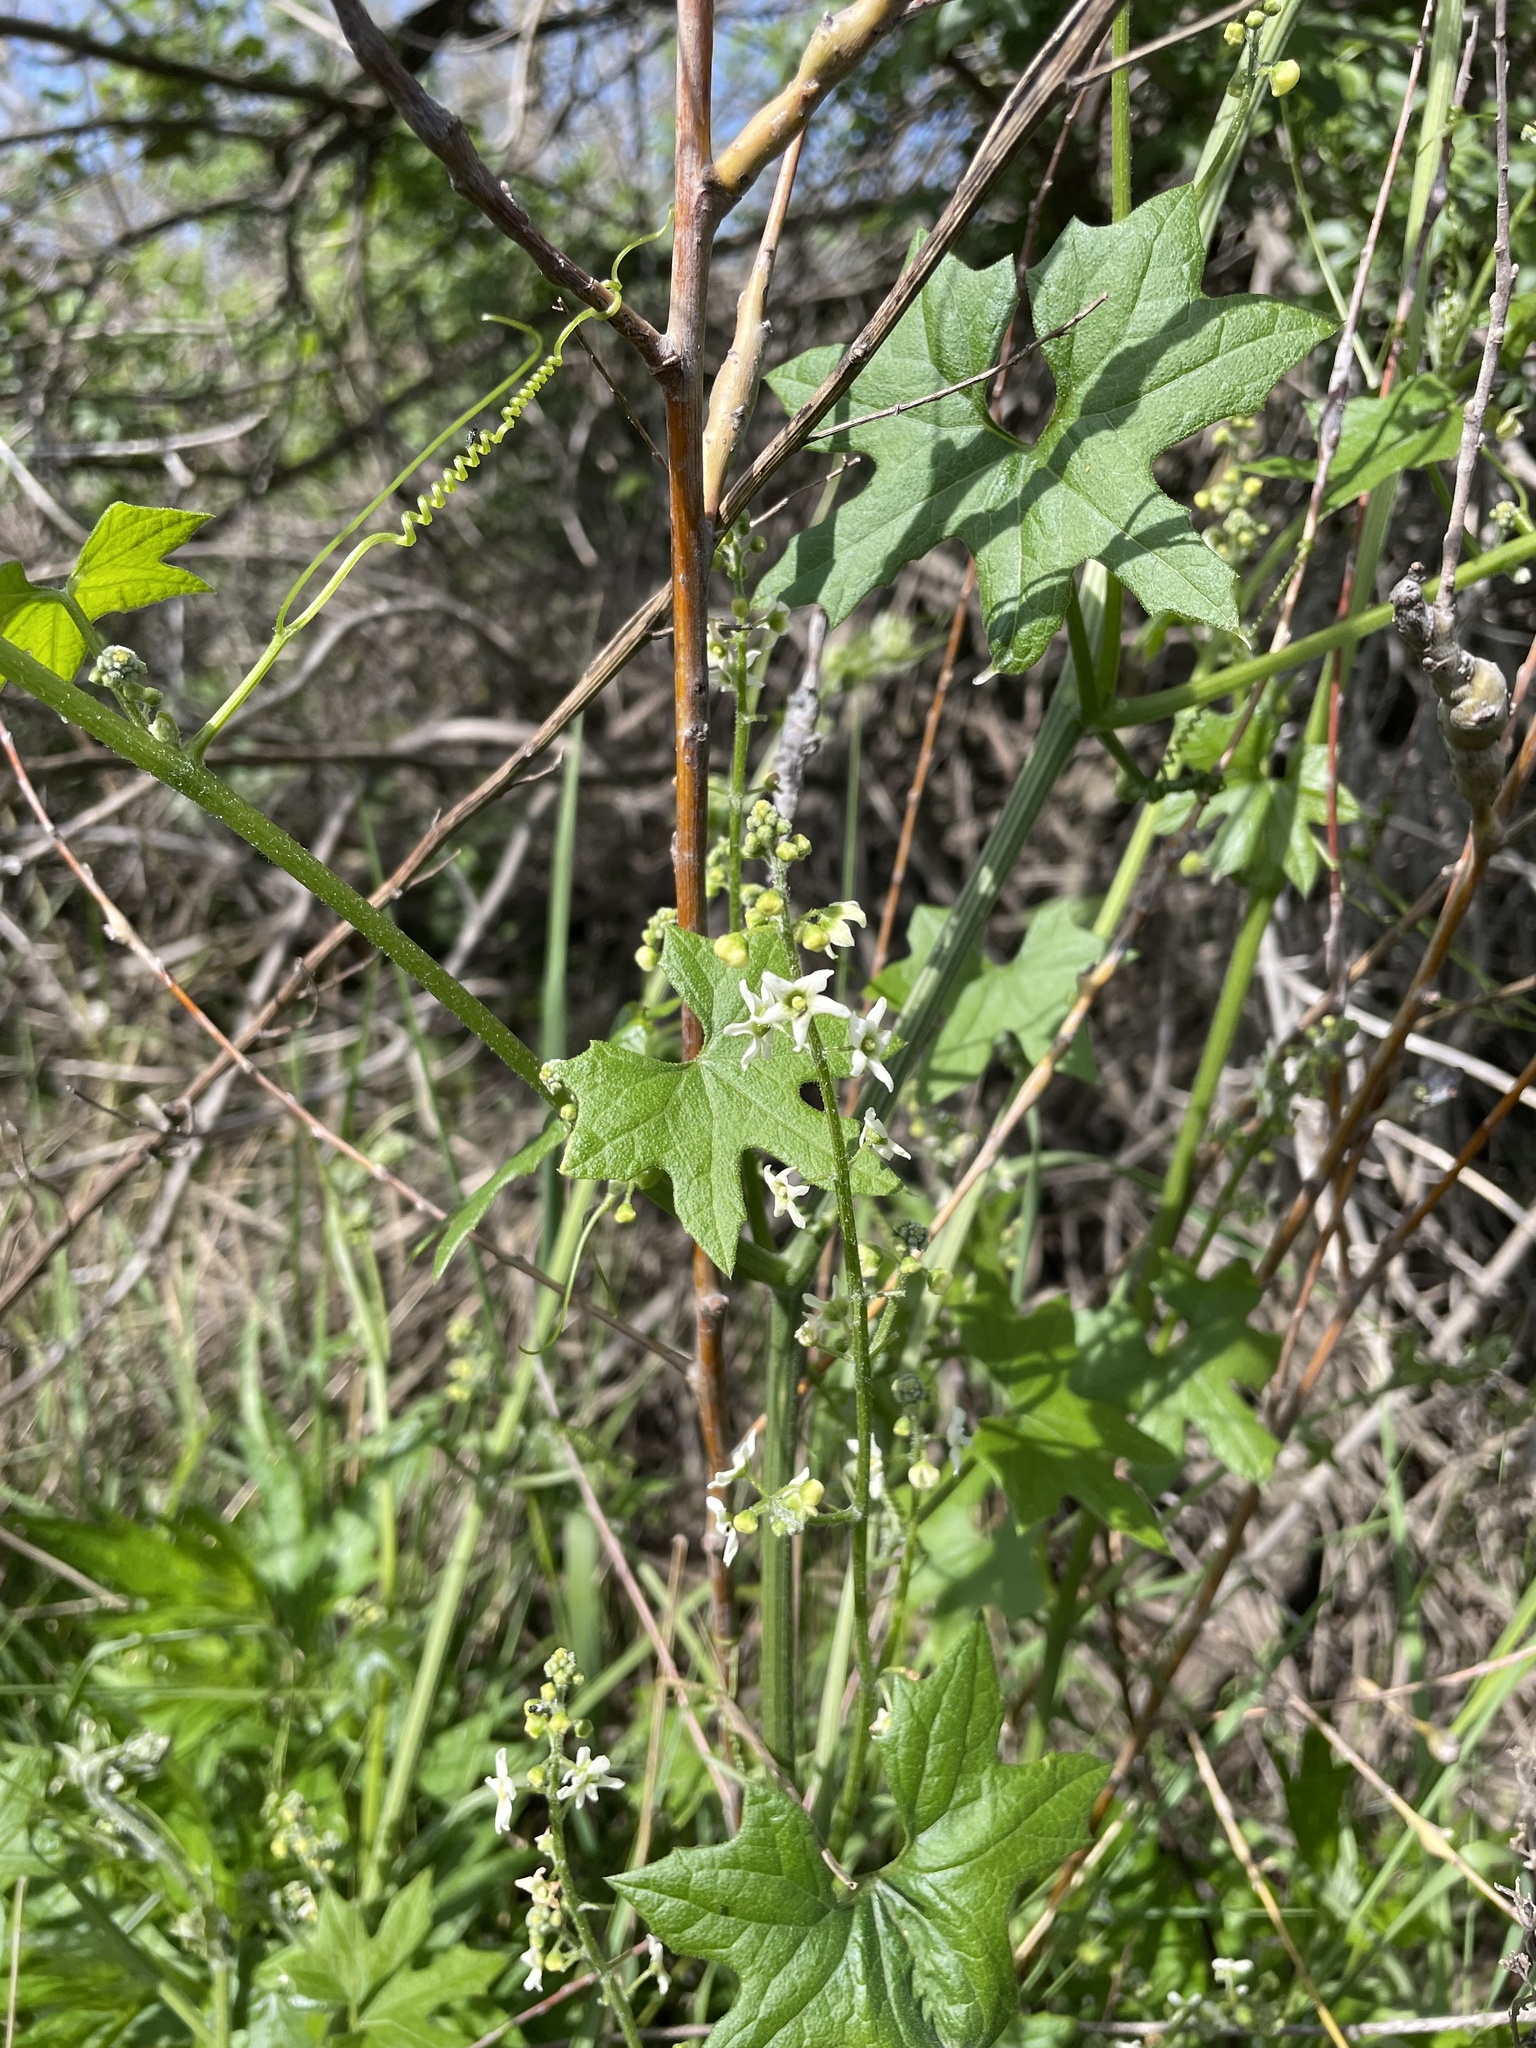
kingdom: Plantae
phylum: Tracheophyta
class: Magnoliopsida
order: Cucurbitales
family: Cucurbitaceae
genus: Marah
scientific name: Marah fabacea
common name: California manroot
